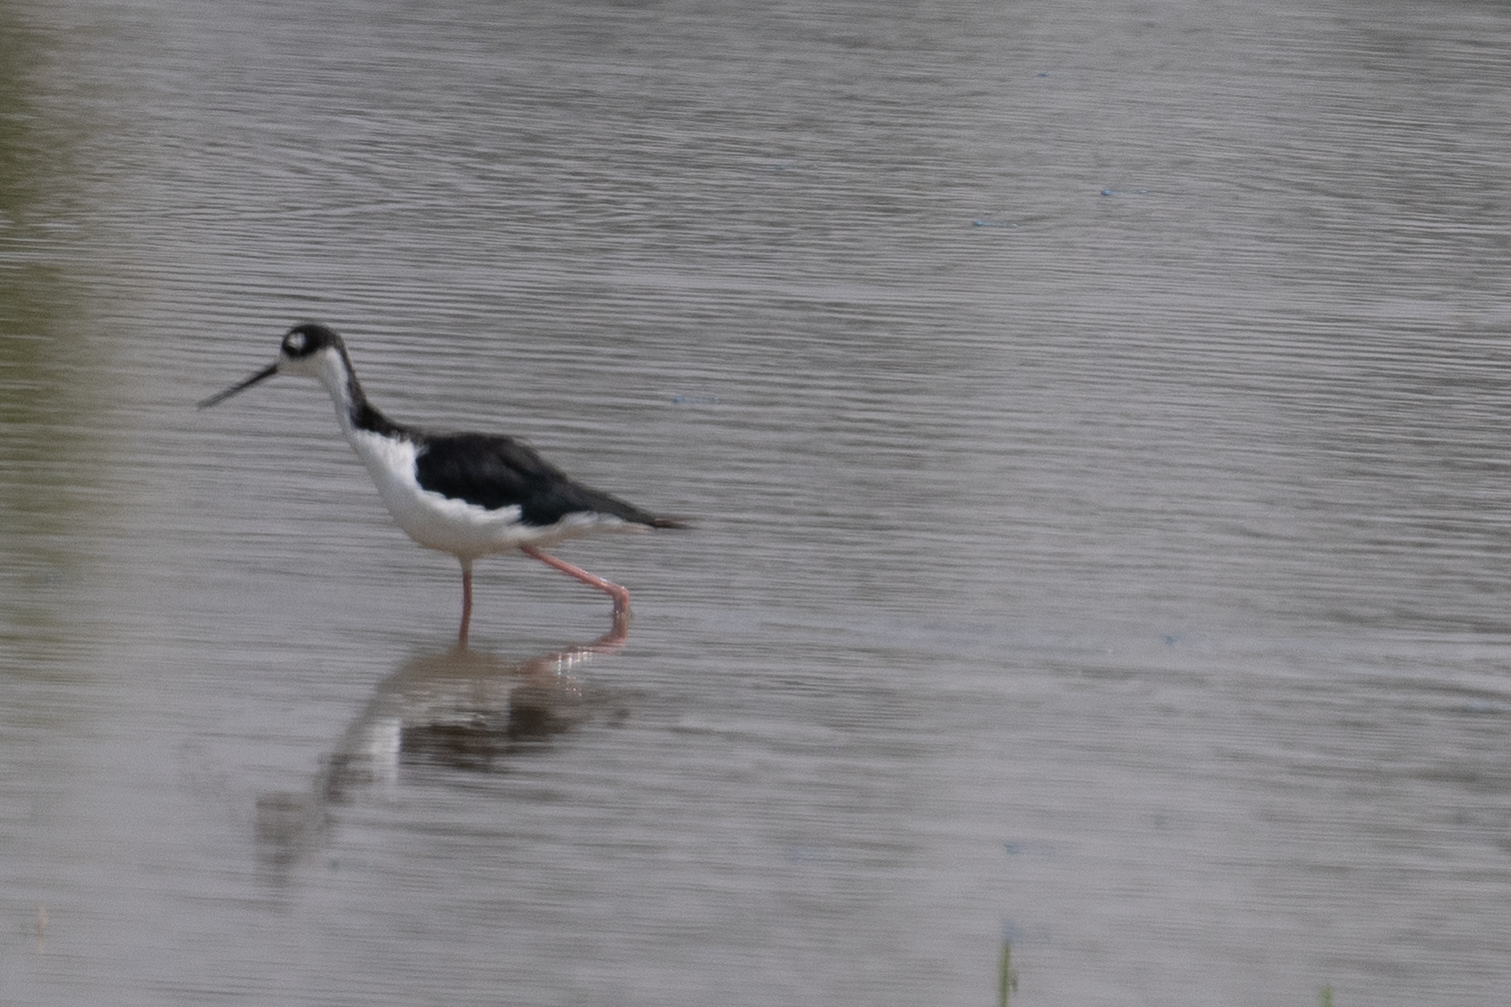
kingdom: Animalia
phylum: Chordata
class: Aves
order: Charadriiformes
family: Recurvirostridae
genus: Himantopus
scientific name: Himantopus mexicanus
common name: Black-necked stilt
